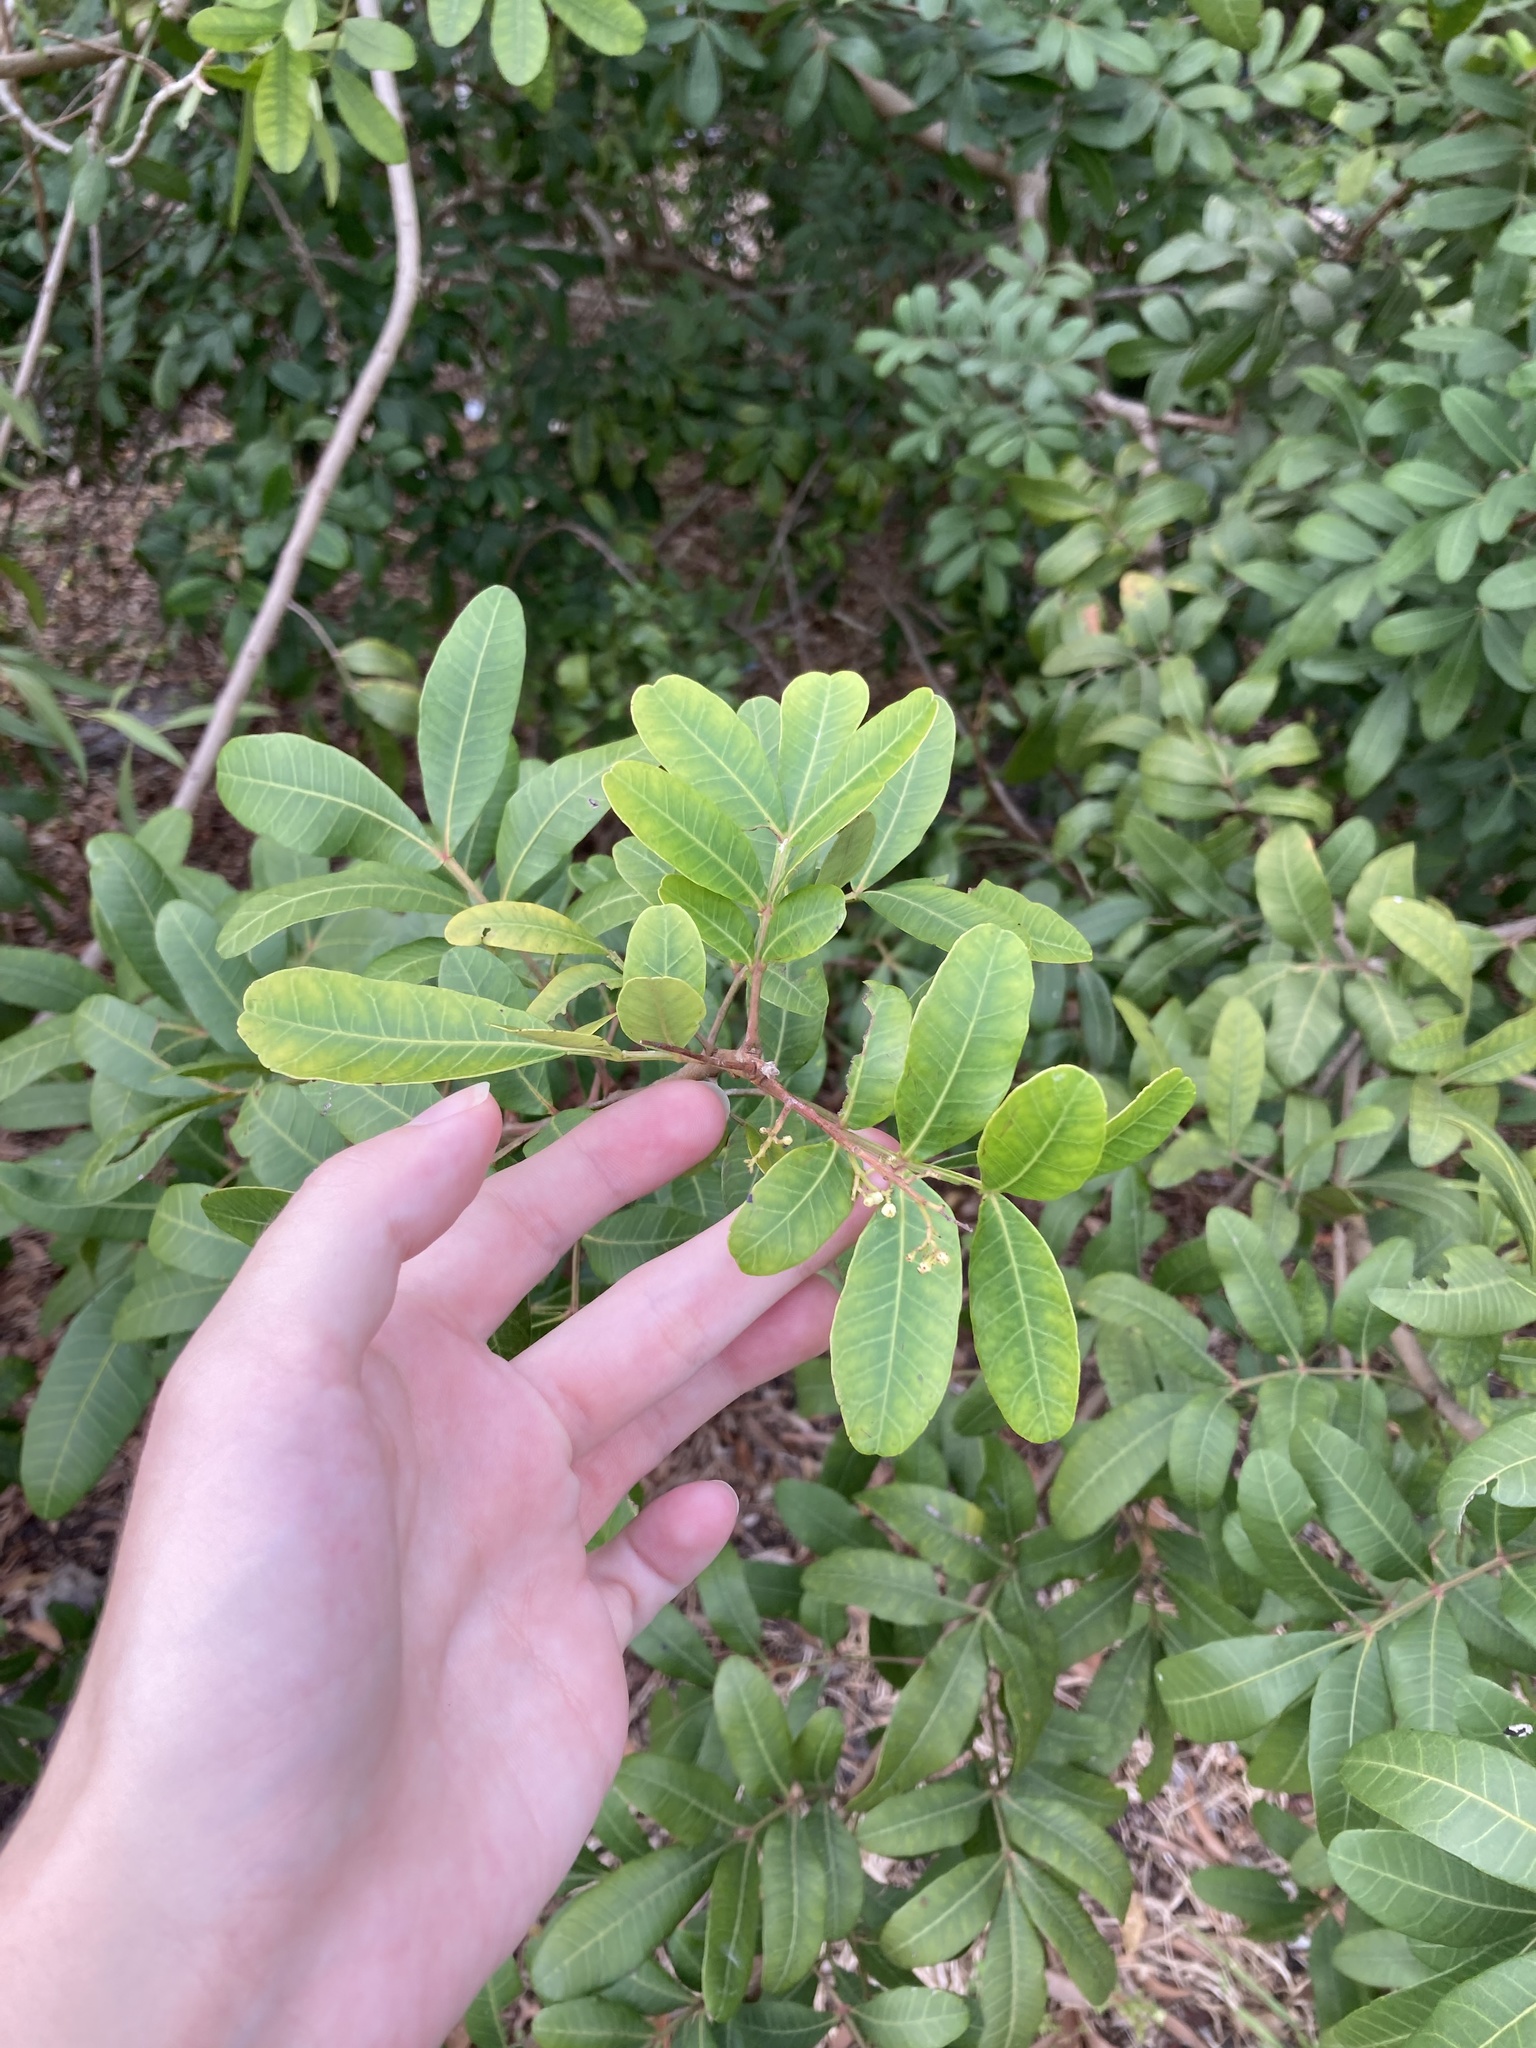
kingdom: Plantae
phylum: Tracheophyta
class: Magnoliopsida
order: Sapindales
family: Anacardiaceae
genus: Schinus
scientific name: Schinus terebinthifolia
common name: Brazilian peppertree
